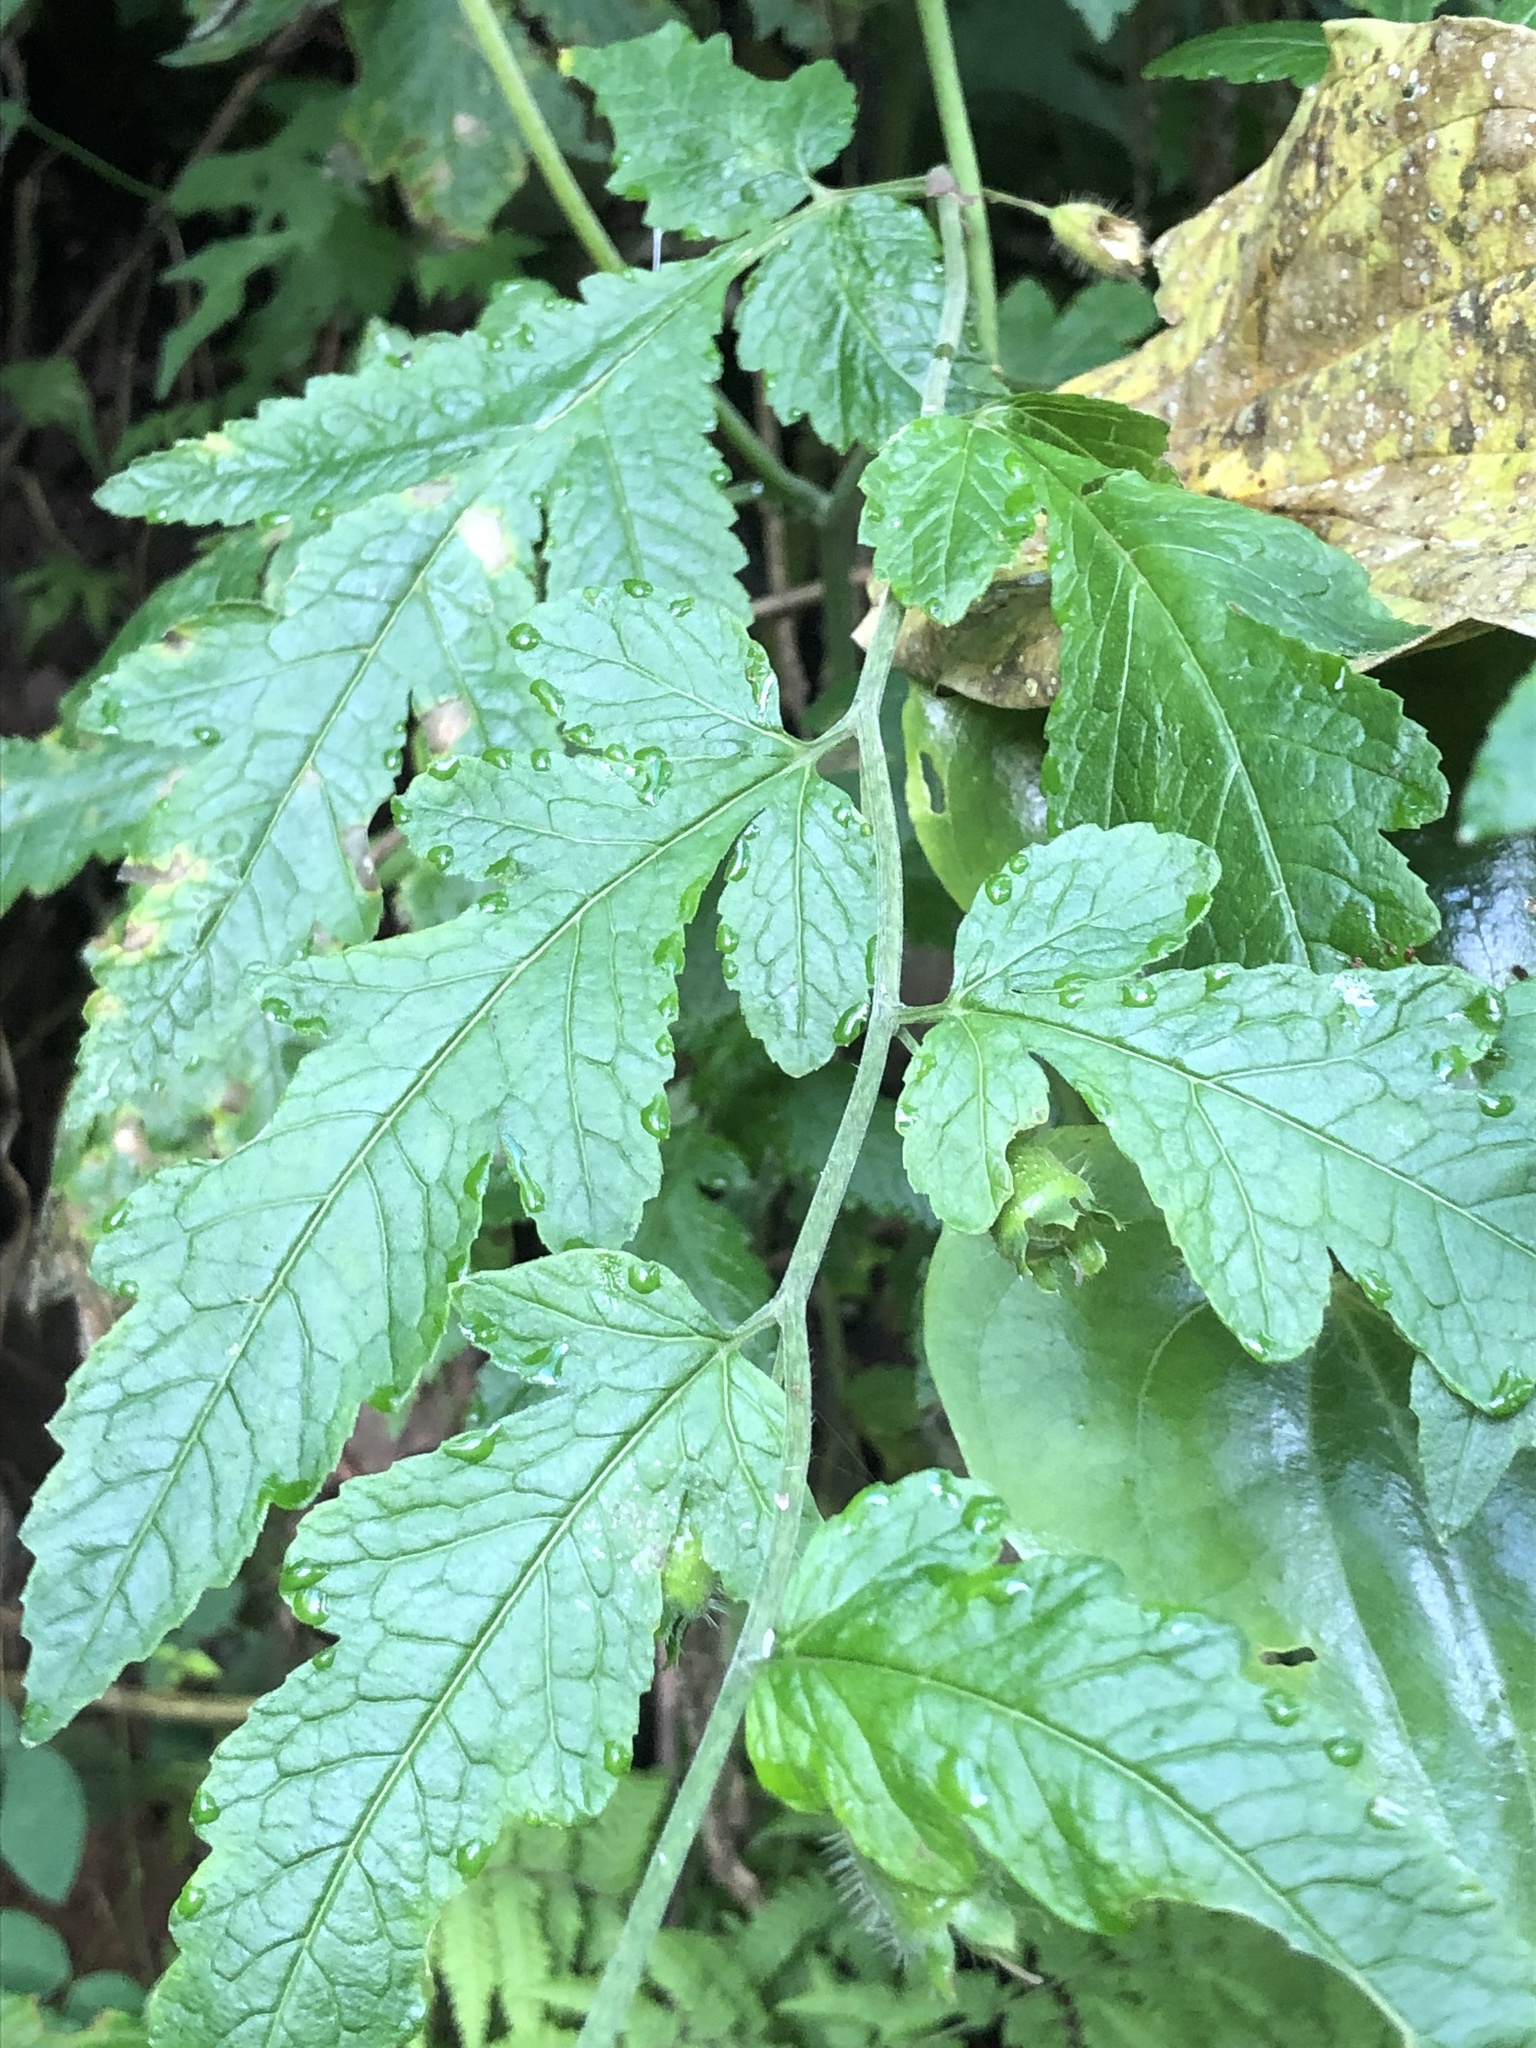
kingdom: Plantae
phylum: Tracheophyta
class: Magnoliopsida
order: Cornales
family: Loasaceae
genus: Nasa
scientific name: Nasa triphylla
